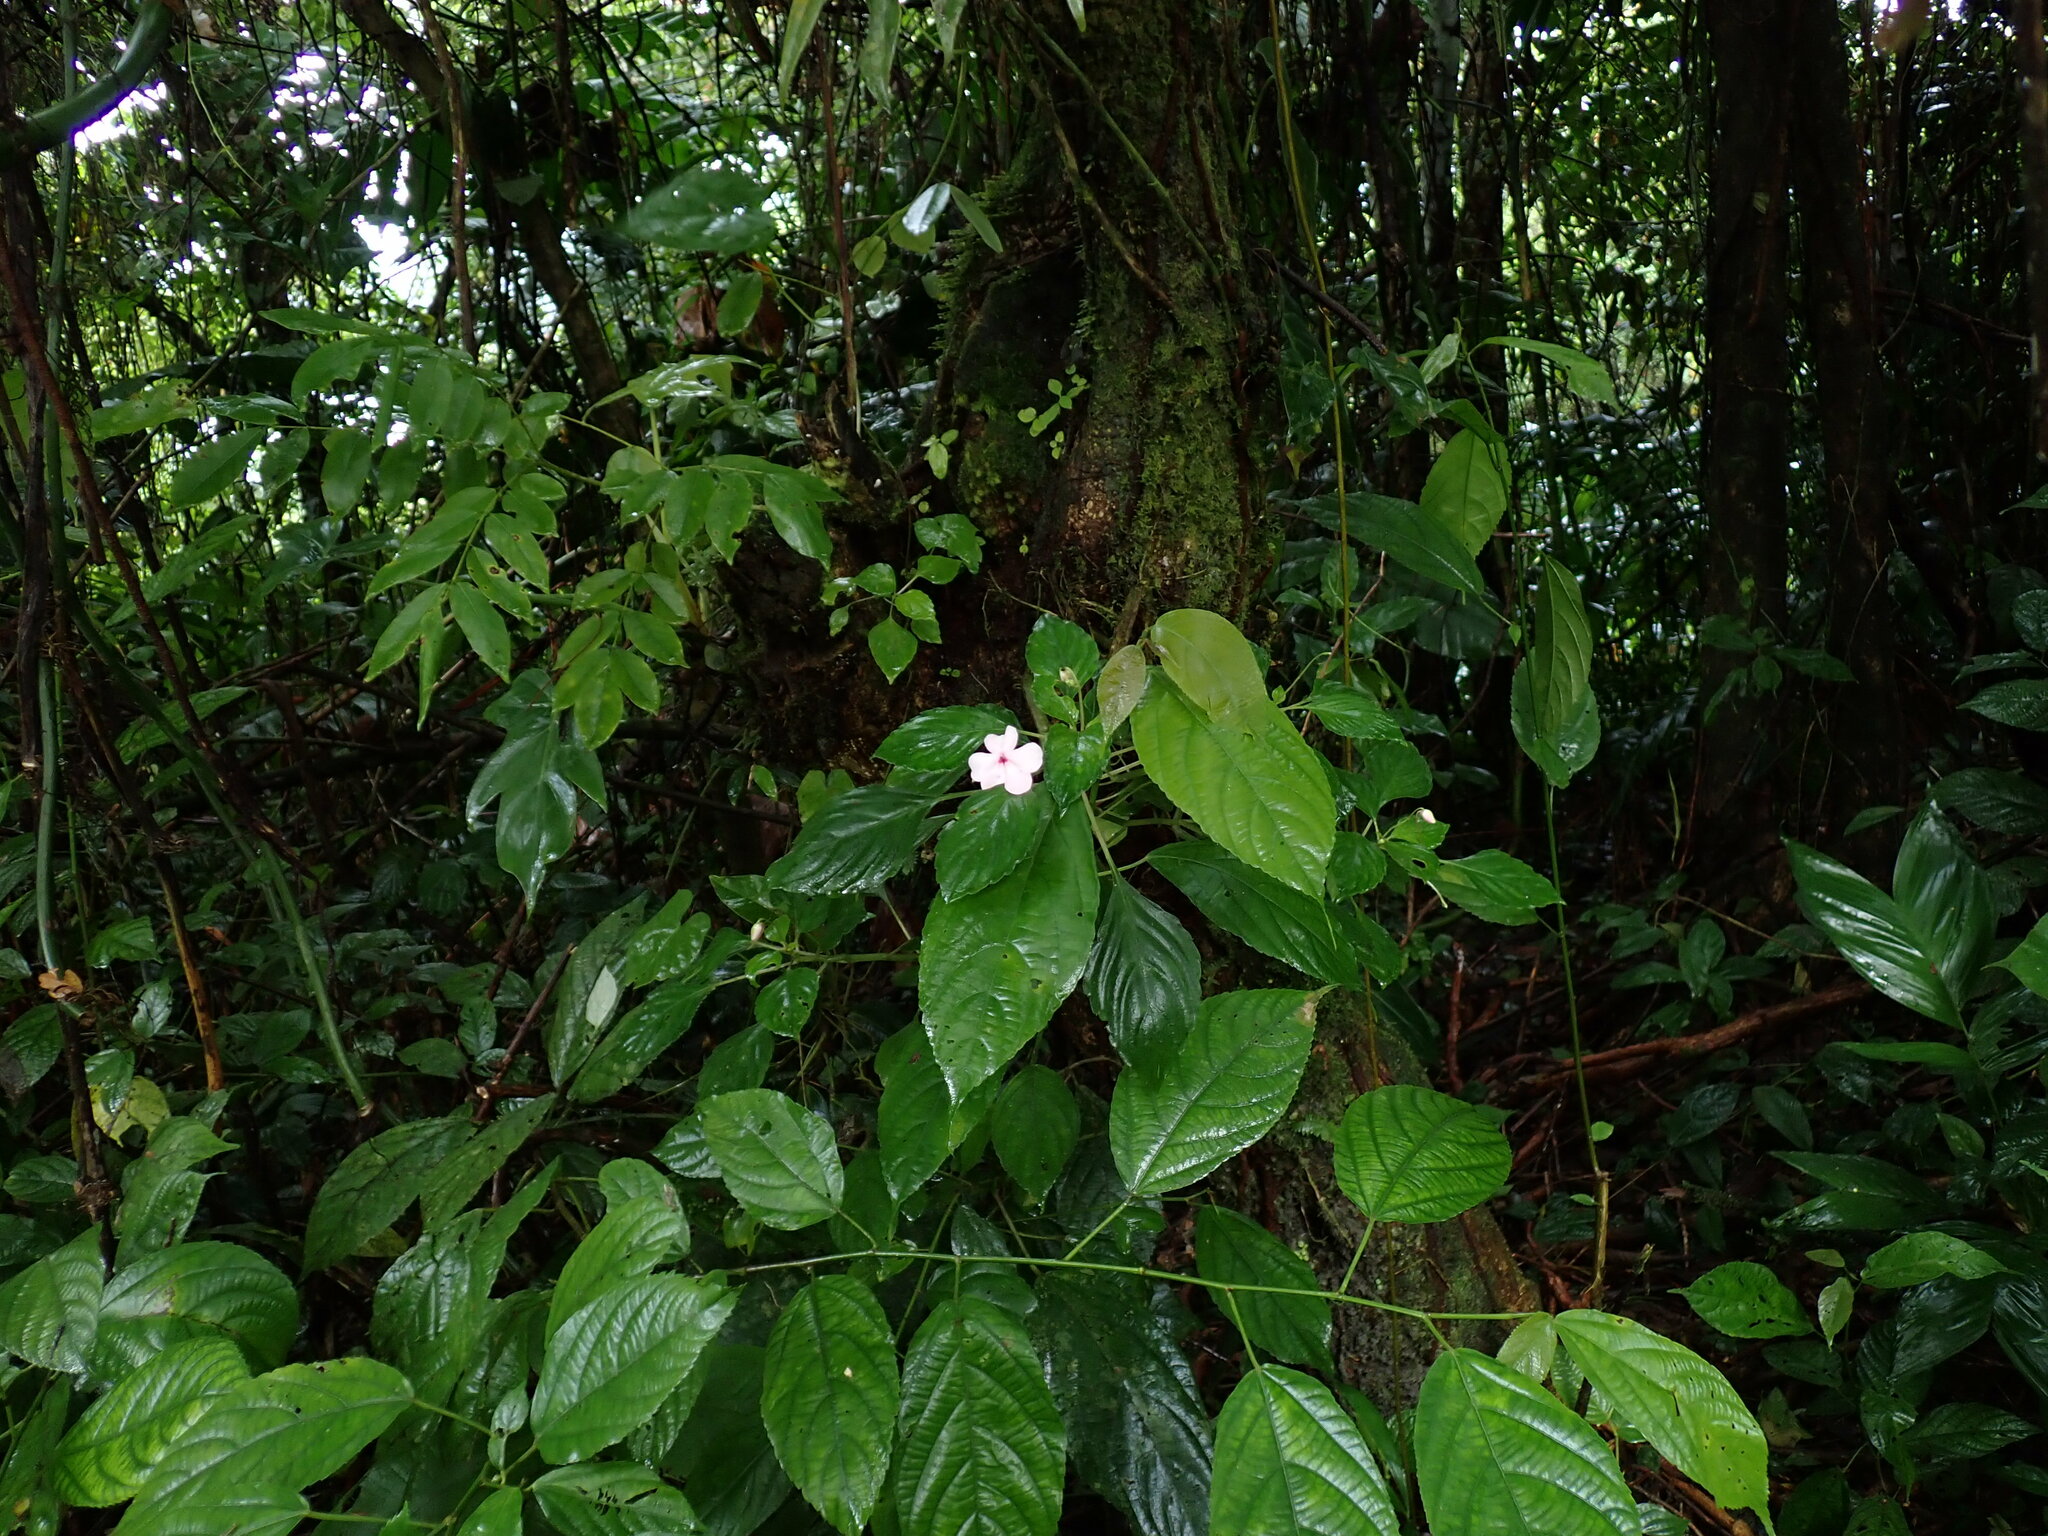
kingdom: Plantae
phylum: Tracheophyta
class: Magnoliopsida
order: Ericales
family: Balsaminaceae
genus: Impatiens
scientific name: Impatiens walleriana
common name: Buzzy lizzy
